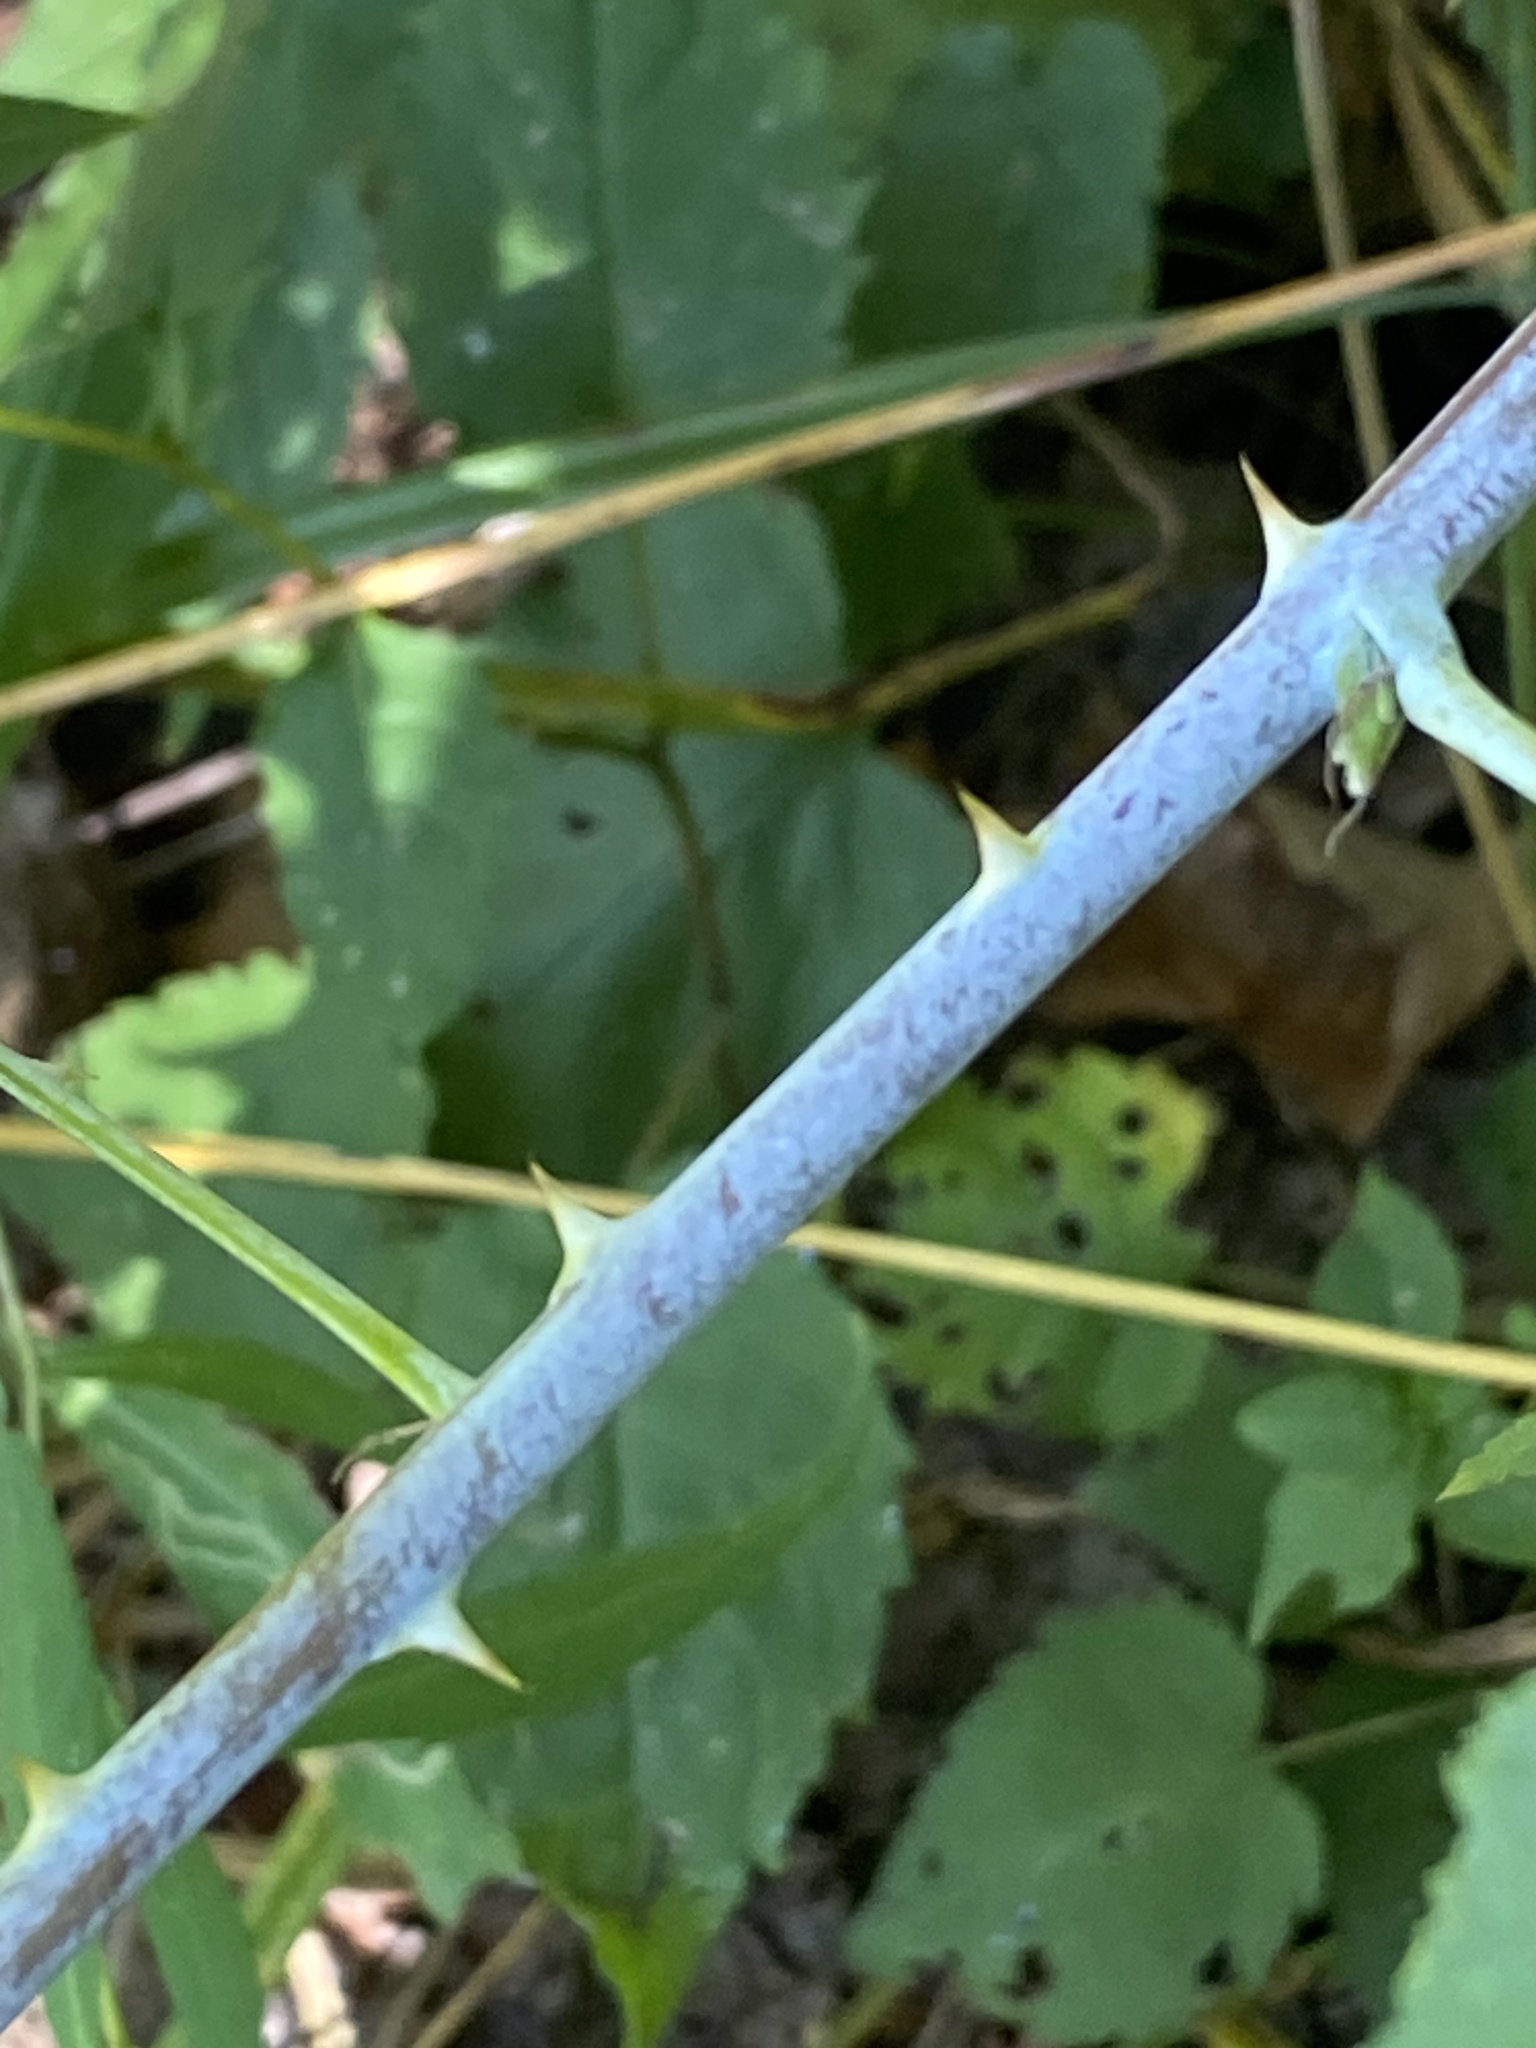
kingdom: Plantae
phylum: Tracheophyta
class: Magnoliopsida
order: Rosales
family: Rosaceae
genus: Rubus
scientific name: Rubus occidentalis
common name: Black raspberry
